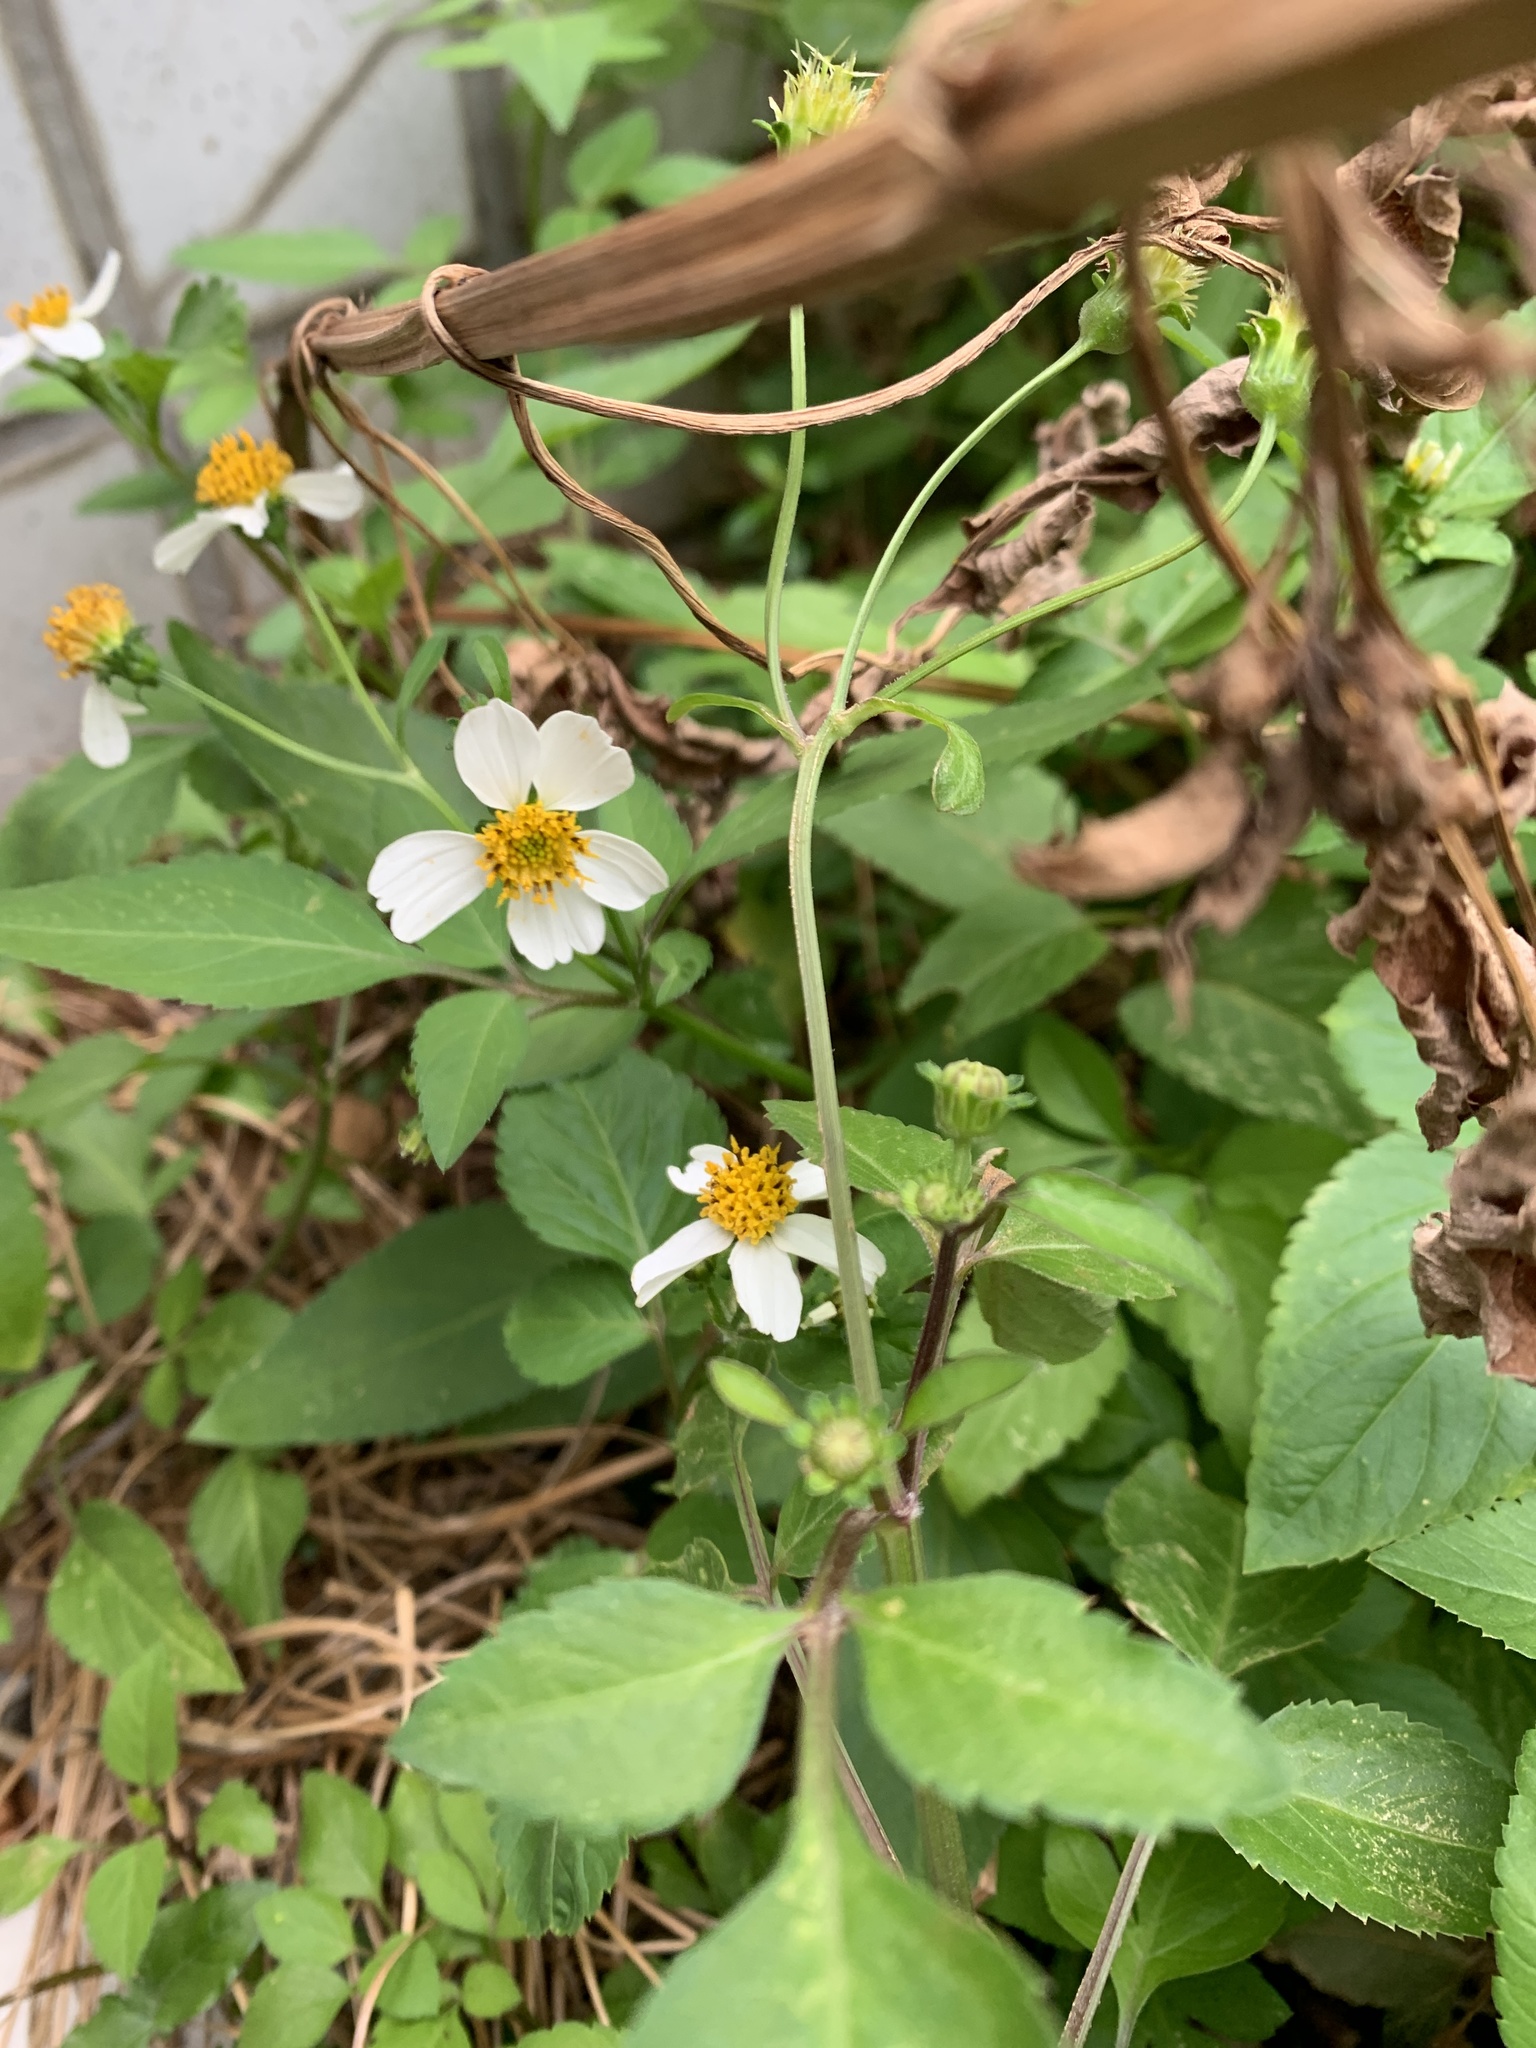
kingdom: Plantae
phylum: Tracheophyta
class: Magnoliopsida
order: Asterales
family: Asteraceae
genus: Bidens
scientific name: Bidens alba
